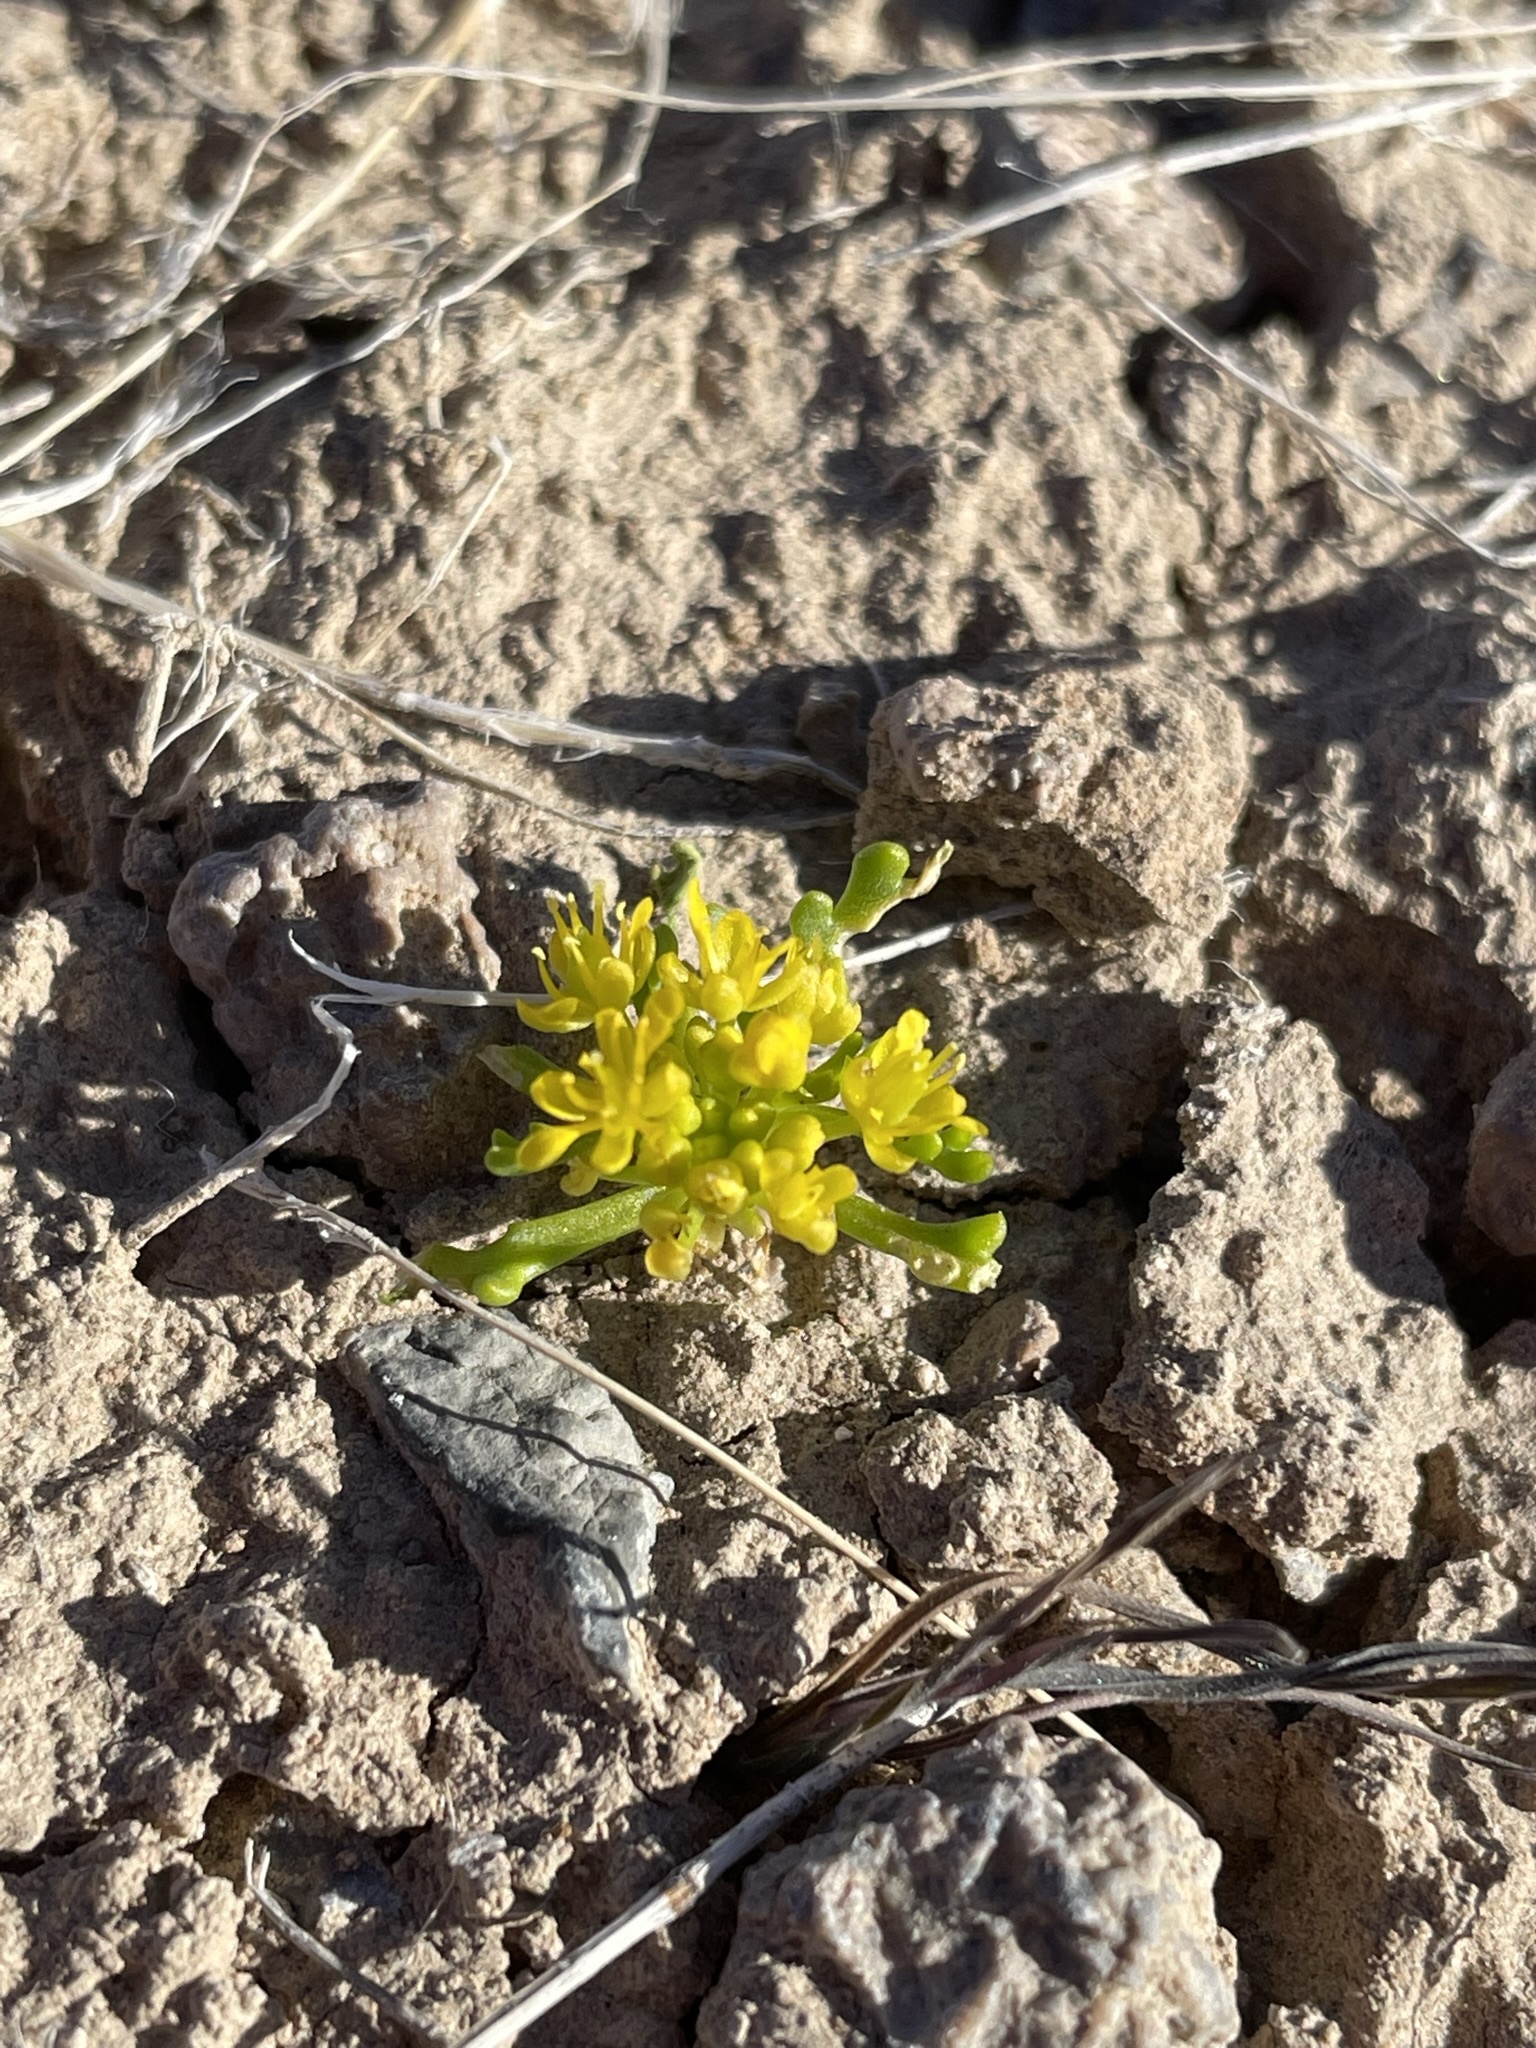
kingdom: Plantae
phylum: Tracheophyta
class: Magnoliopsida
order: Brassicales
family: Brassicaceae
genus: Lepidium
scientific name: Lepidium flavum
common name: Yellow pepperwort
